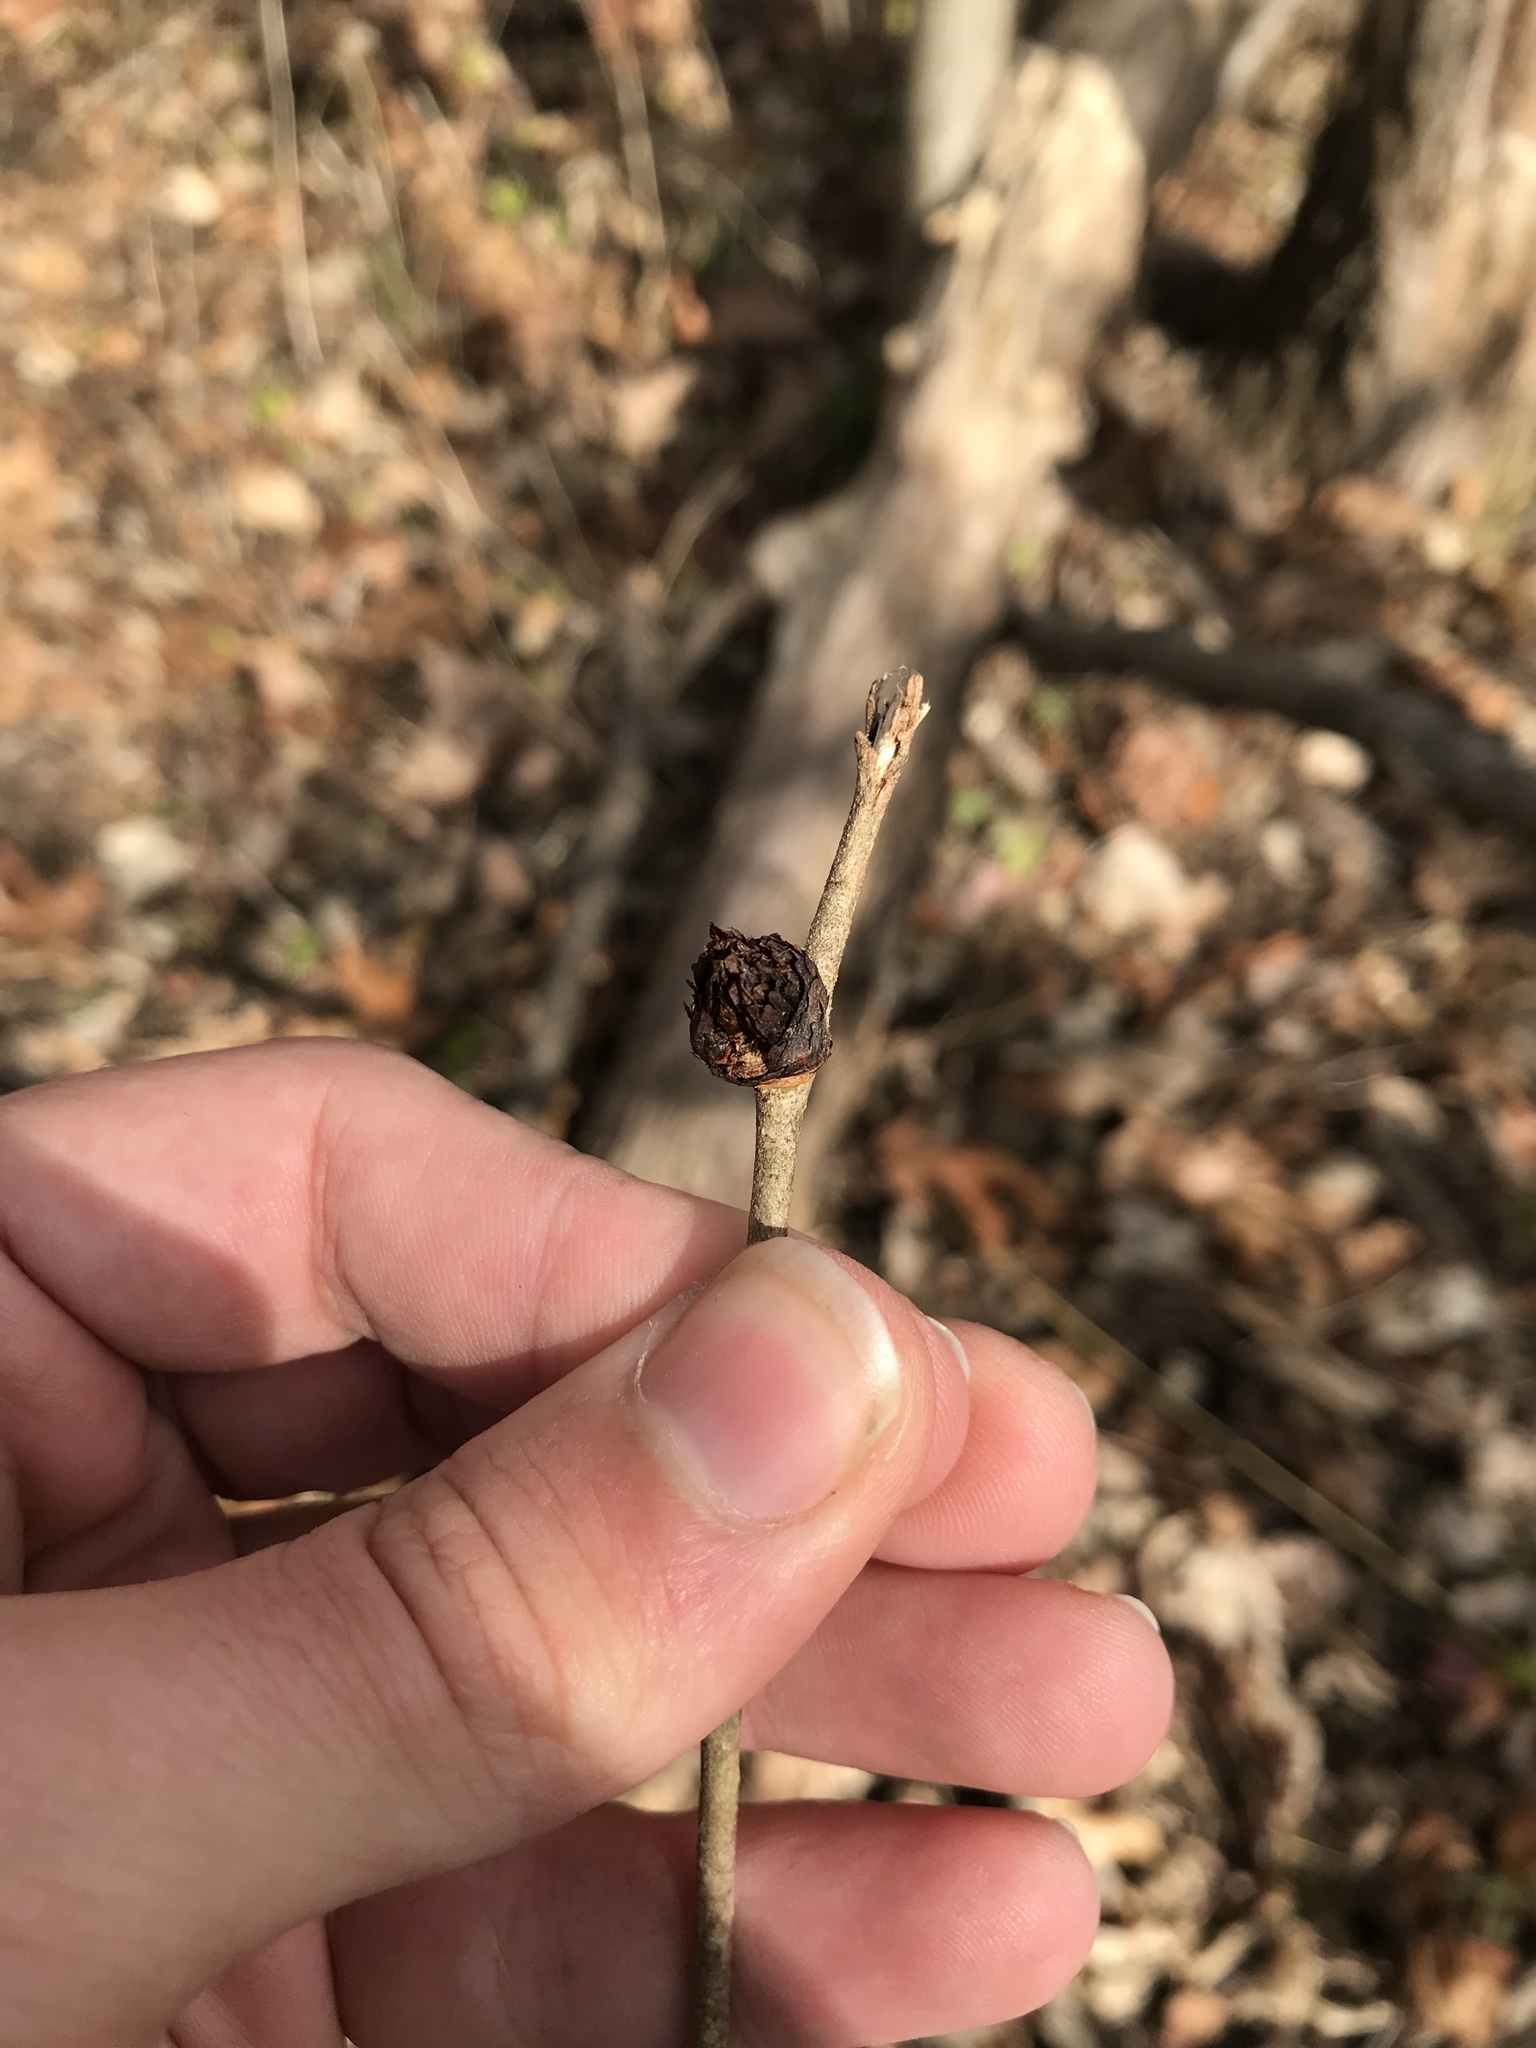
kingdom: Animalia
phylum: Arthropoda
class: Insecta
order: Diptera
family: Cecidomyiidae
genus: Dasineura
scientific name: Dasineura ulmea
